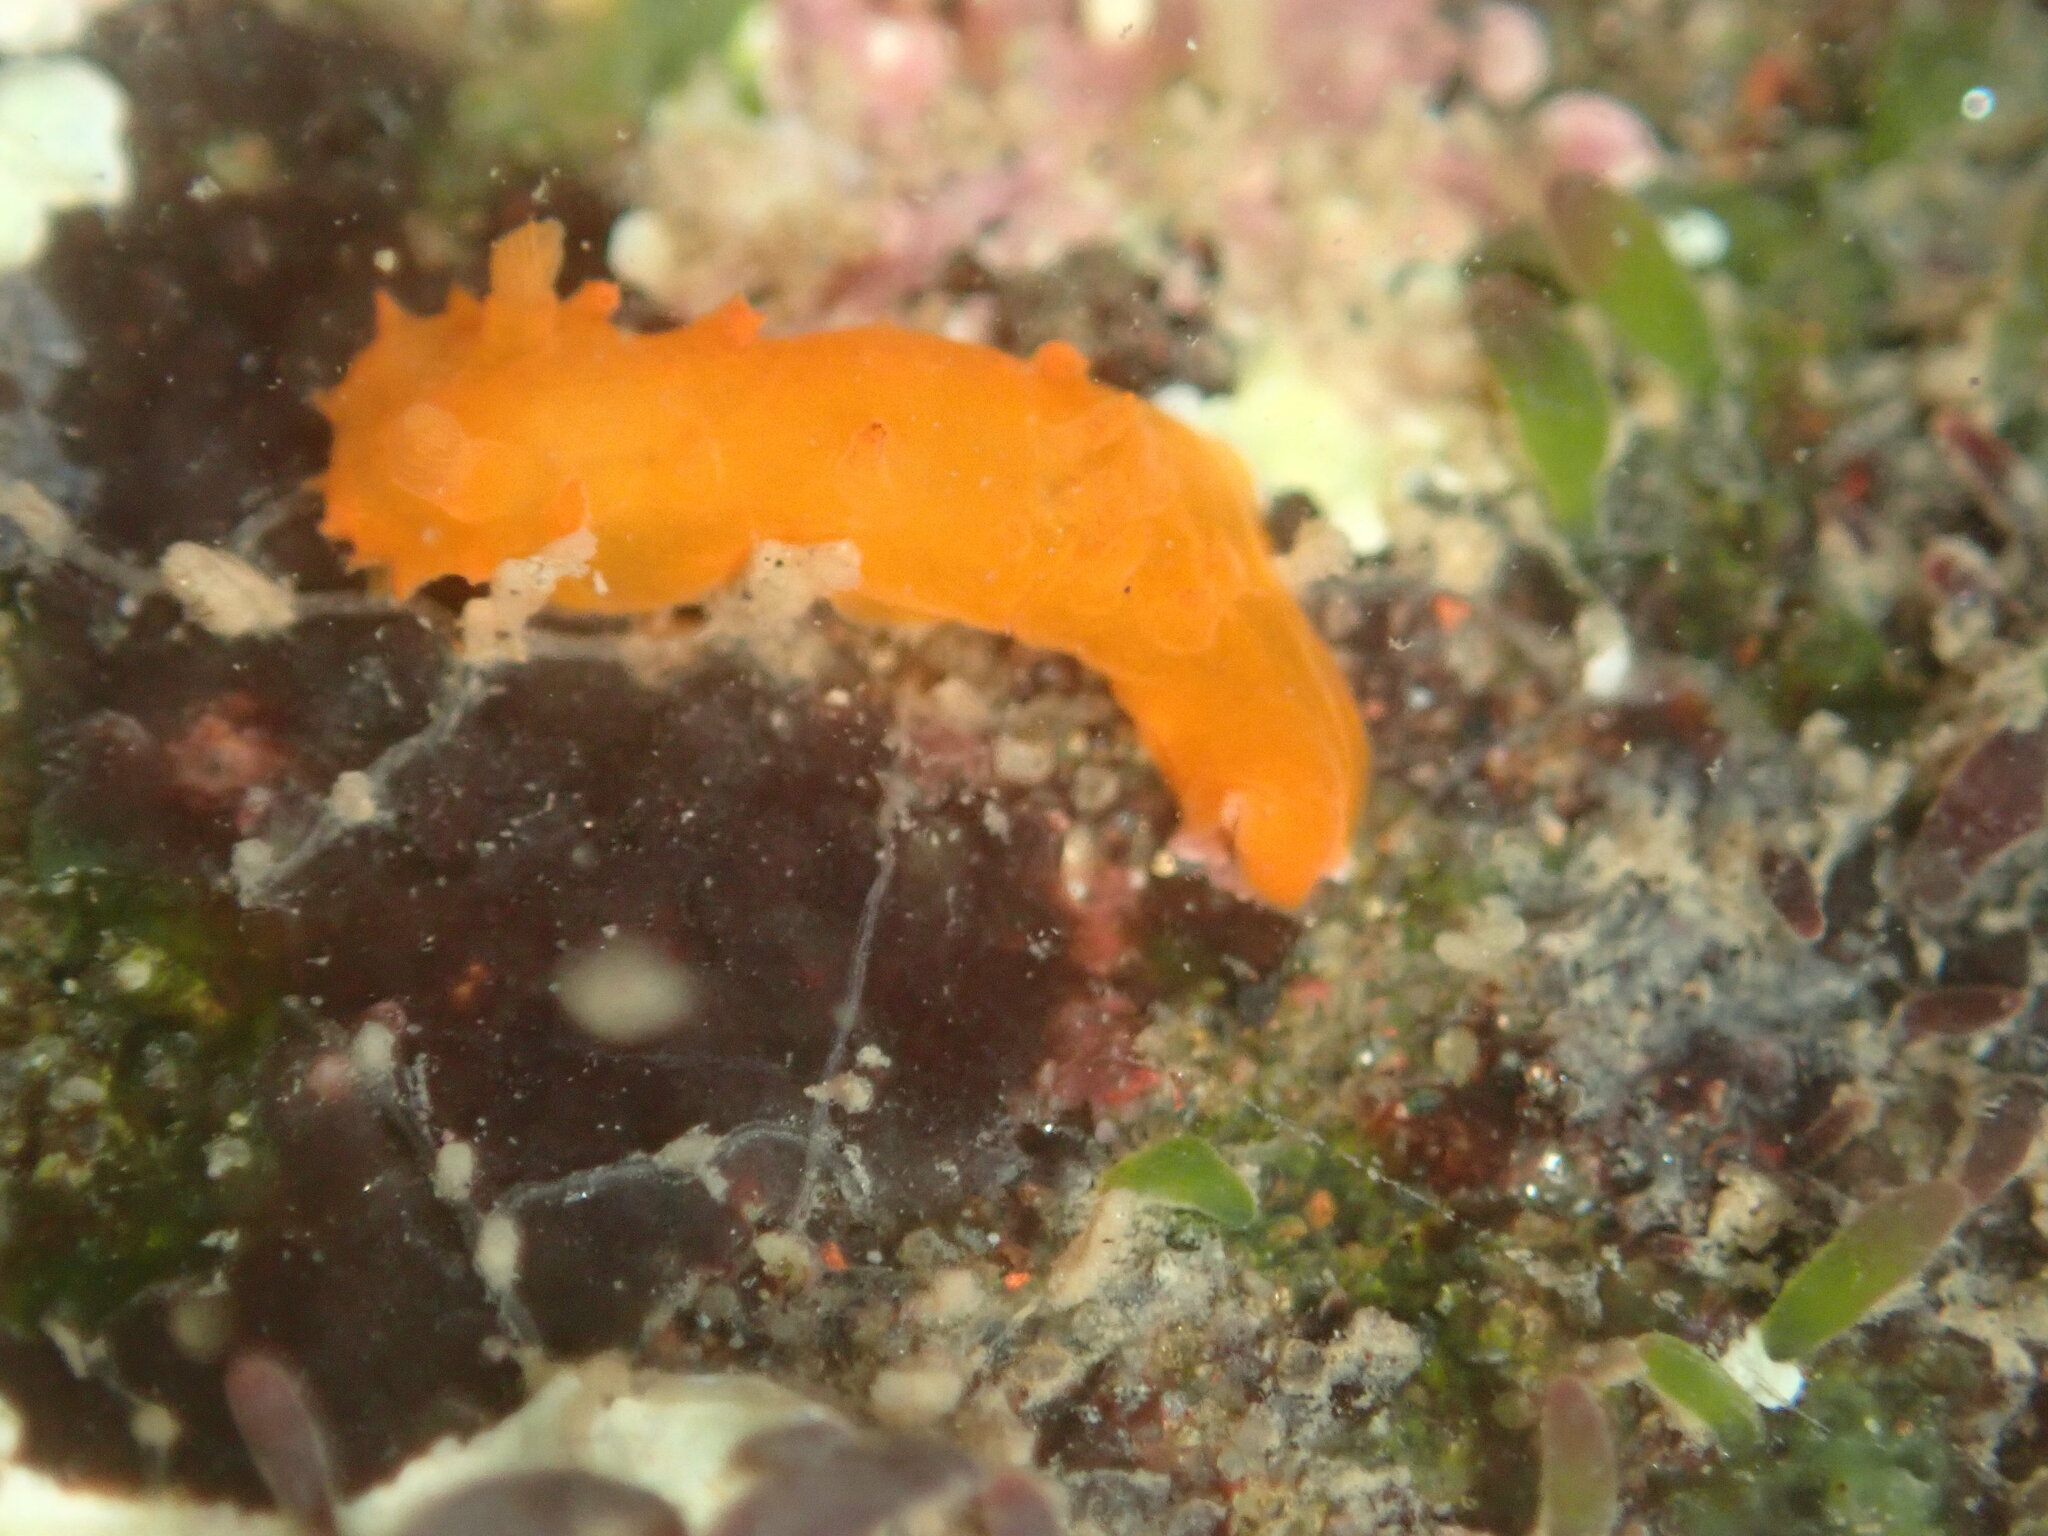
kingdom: Animalia
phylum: Mollusca
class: Gastropoda
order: Nudibranchia
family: Polyceridae
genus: Triopha
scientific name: Triopha maculata
